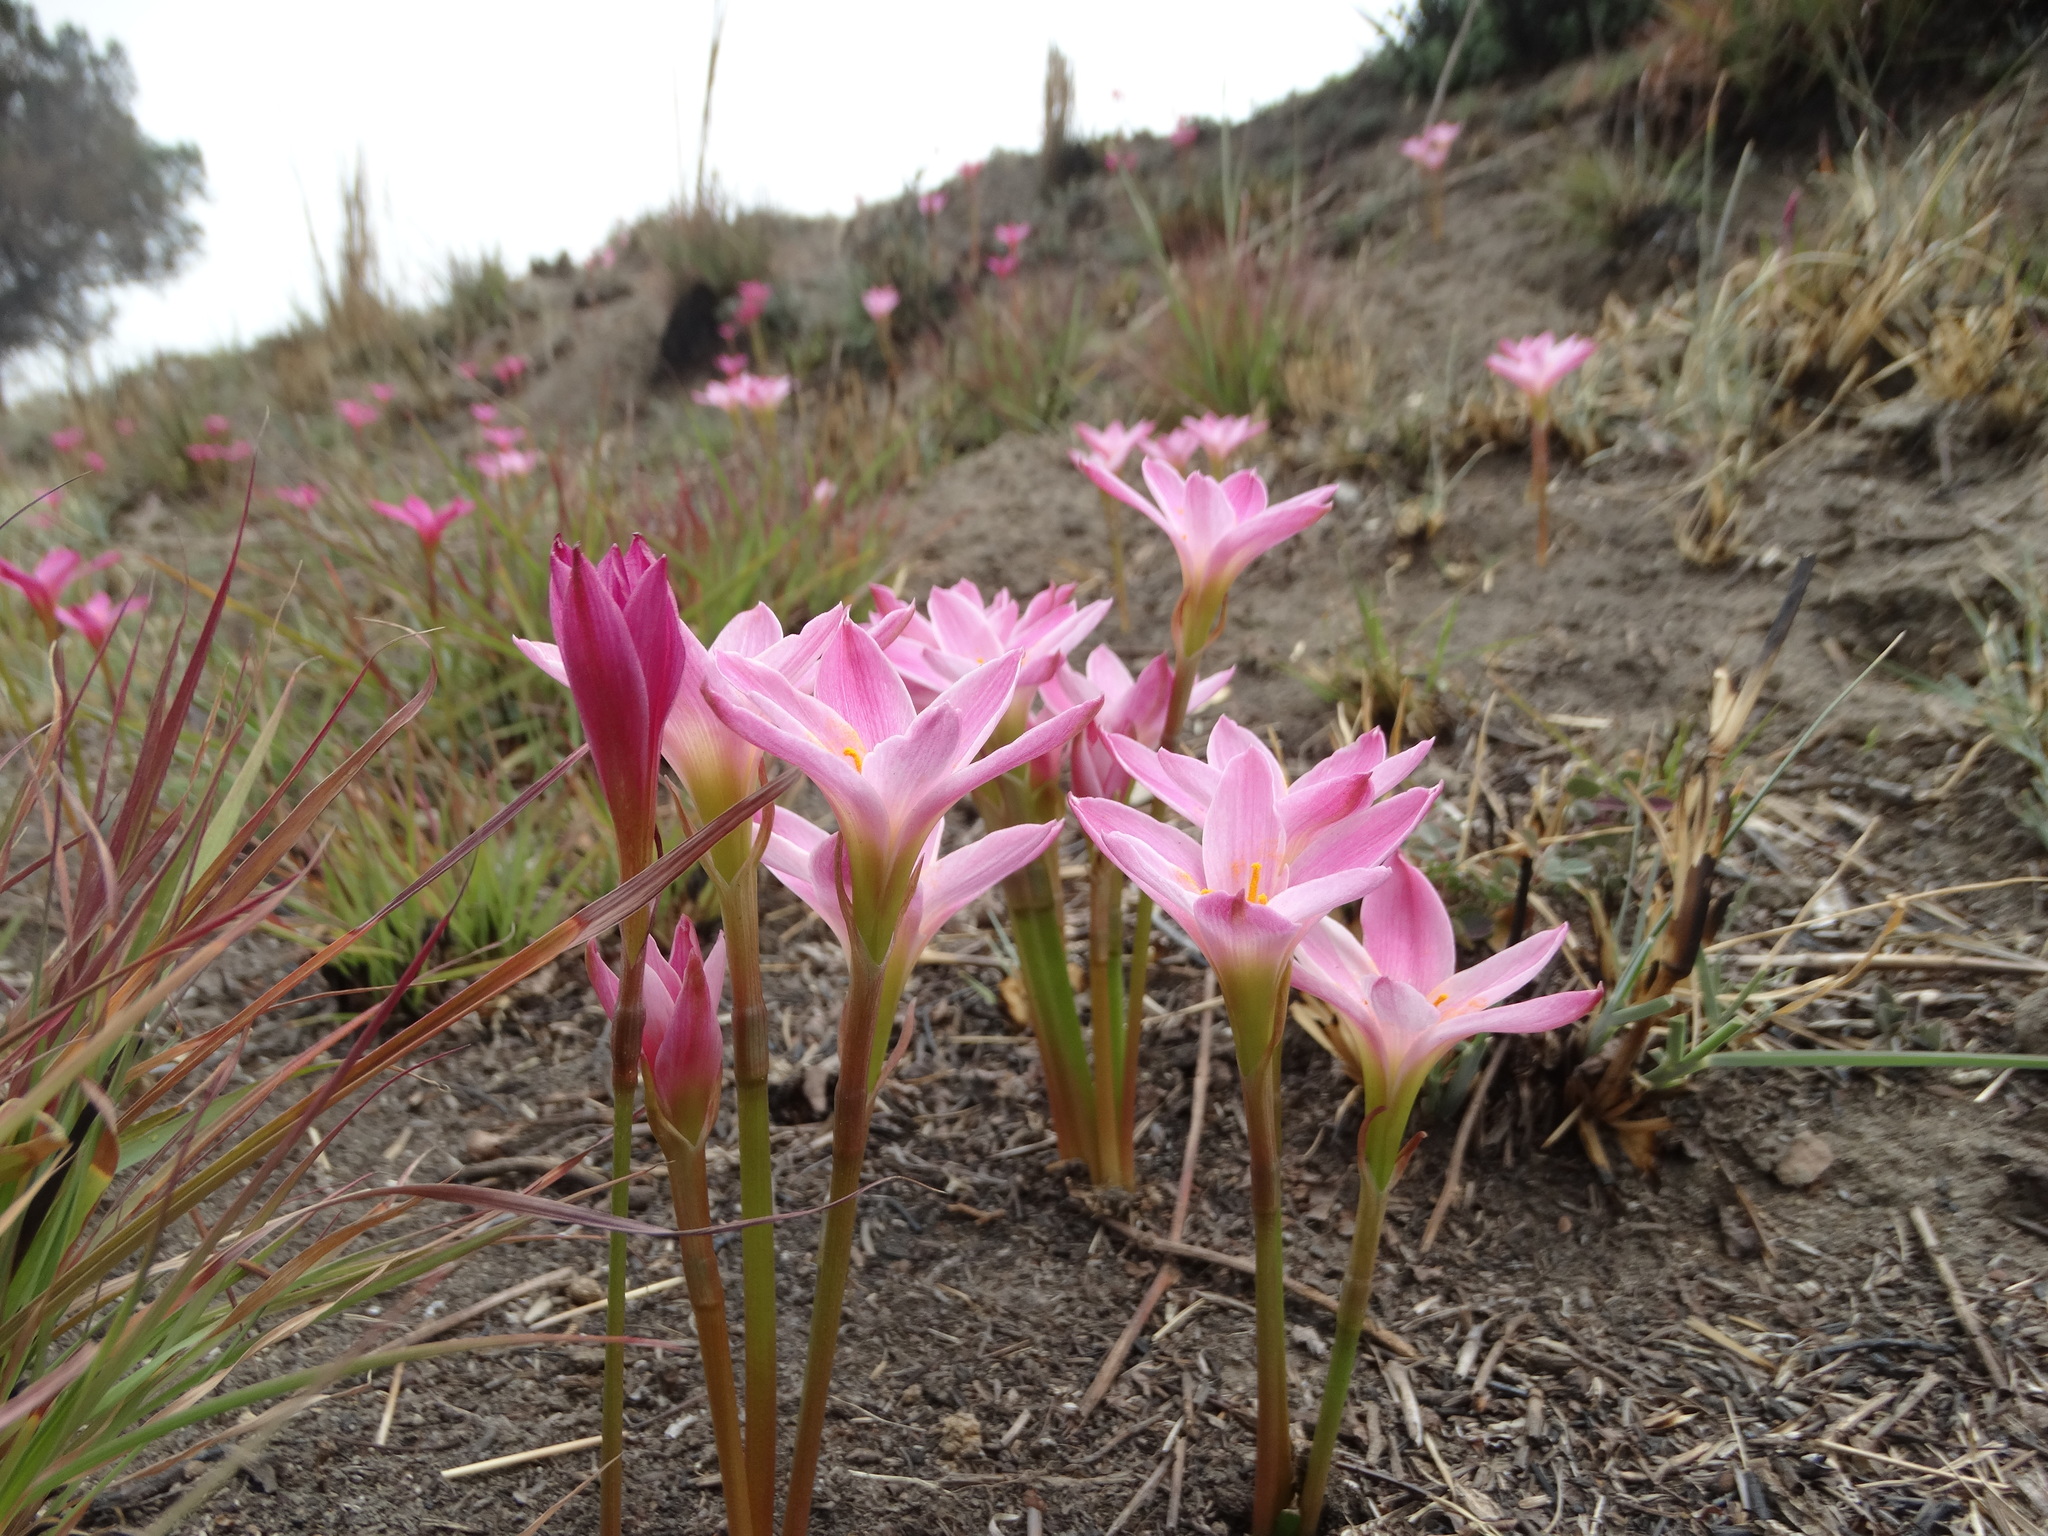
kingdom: Plantae
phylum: Tracheophyta
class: Liliopsida
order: Asparagales
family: Amaryllidaceae
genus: Zephyranthes
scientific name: Zephyranthes fosteri
